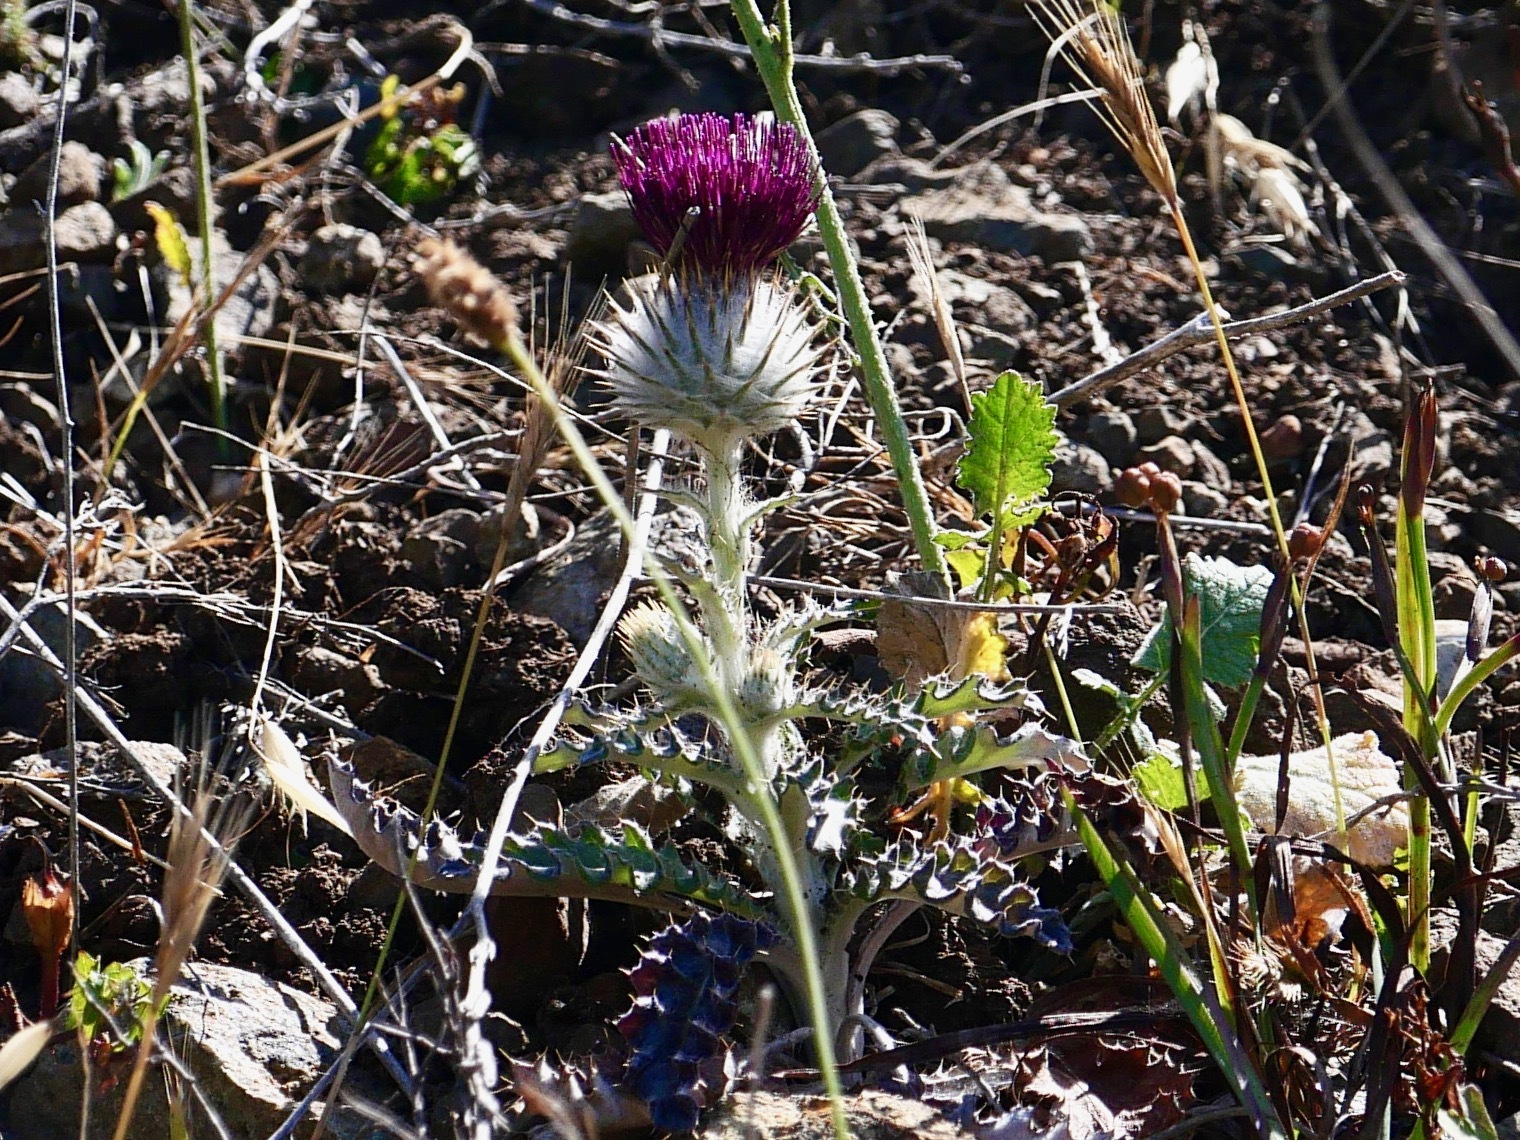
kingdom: Plantae
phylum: Tracheophyta
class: Magnoliopsida
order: Asterales
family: Asteraceae
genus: Cirsium
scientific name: Cirsium occidentale
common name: Western thistle
